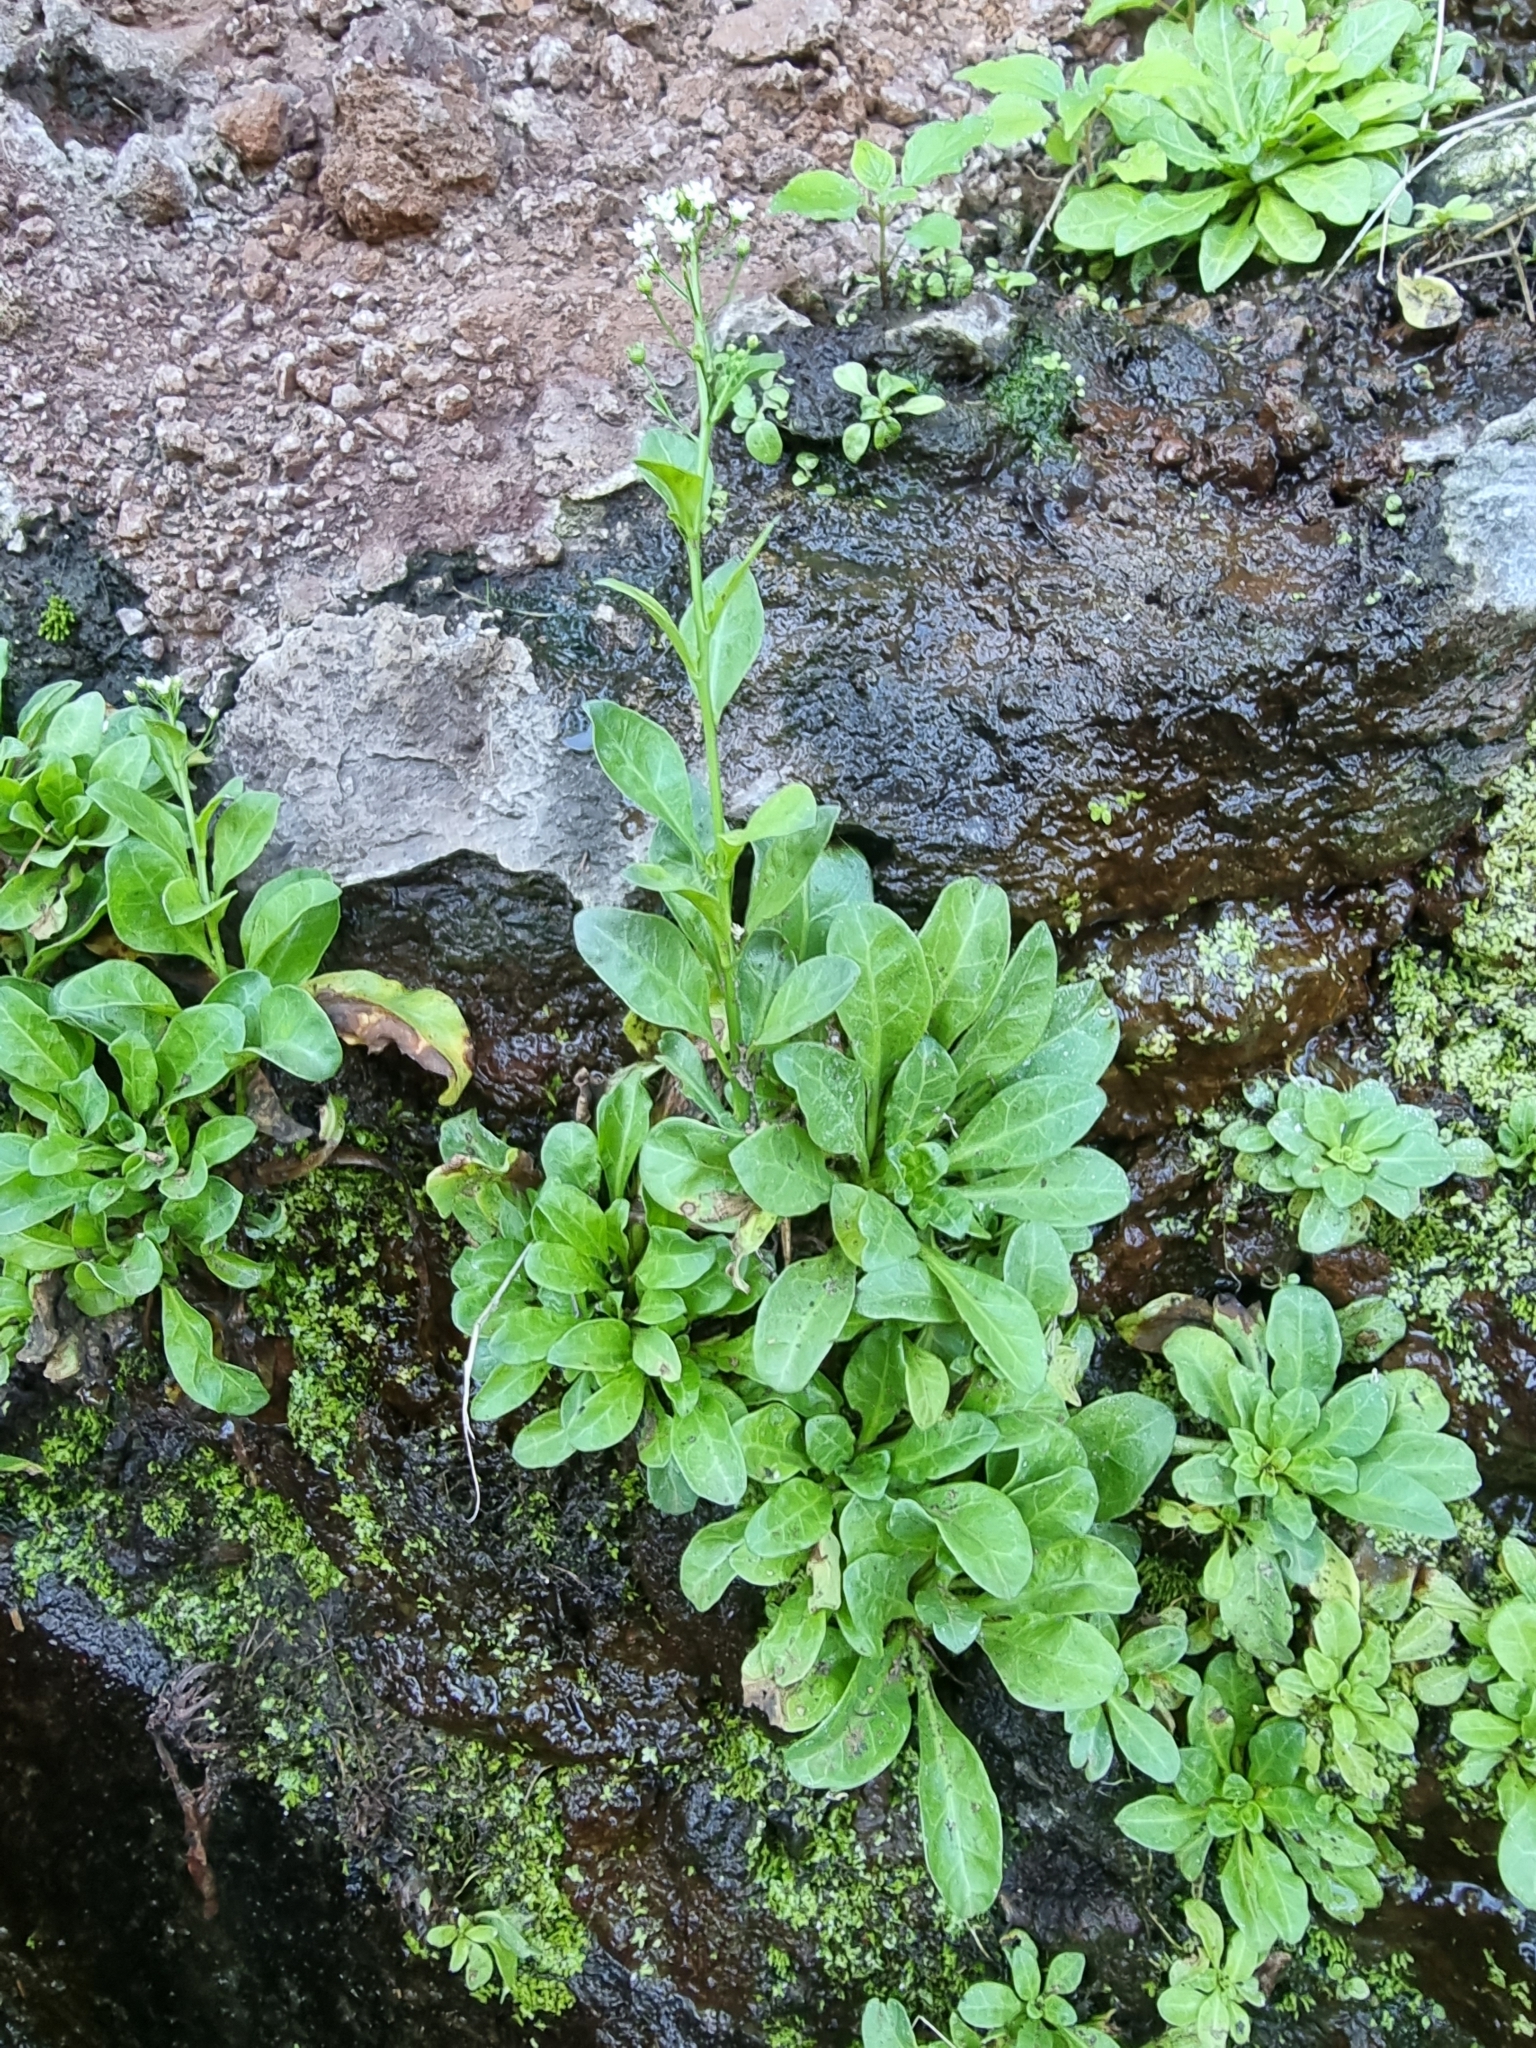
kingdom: Plantae
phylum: Tracheophyta
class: Magnoliopsida
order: Ericales
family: Primulaceae
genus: Samolus
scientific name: Samolus valerandi
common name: Brookweed
